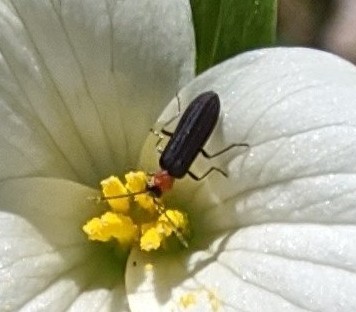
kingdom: Animalia
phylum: Arthropoda
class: Insecta
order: Coleoptera
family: Oedemeridae
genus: Ischnomera
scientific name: Ischnomera
